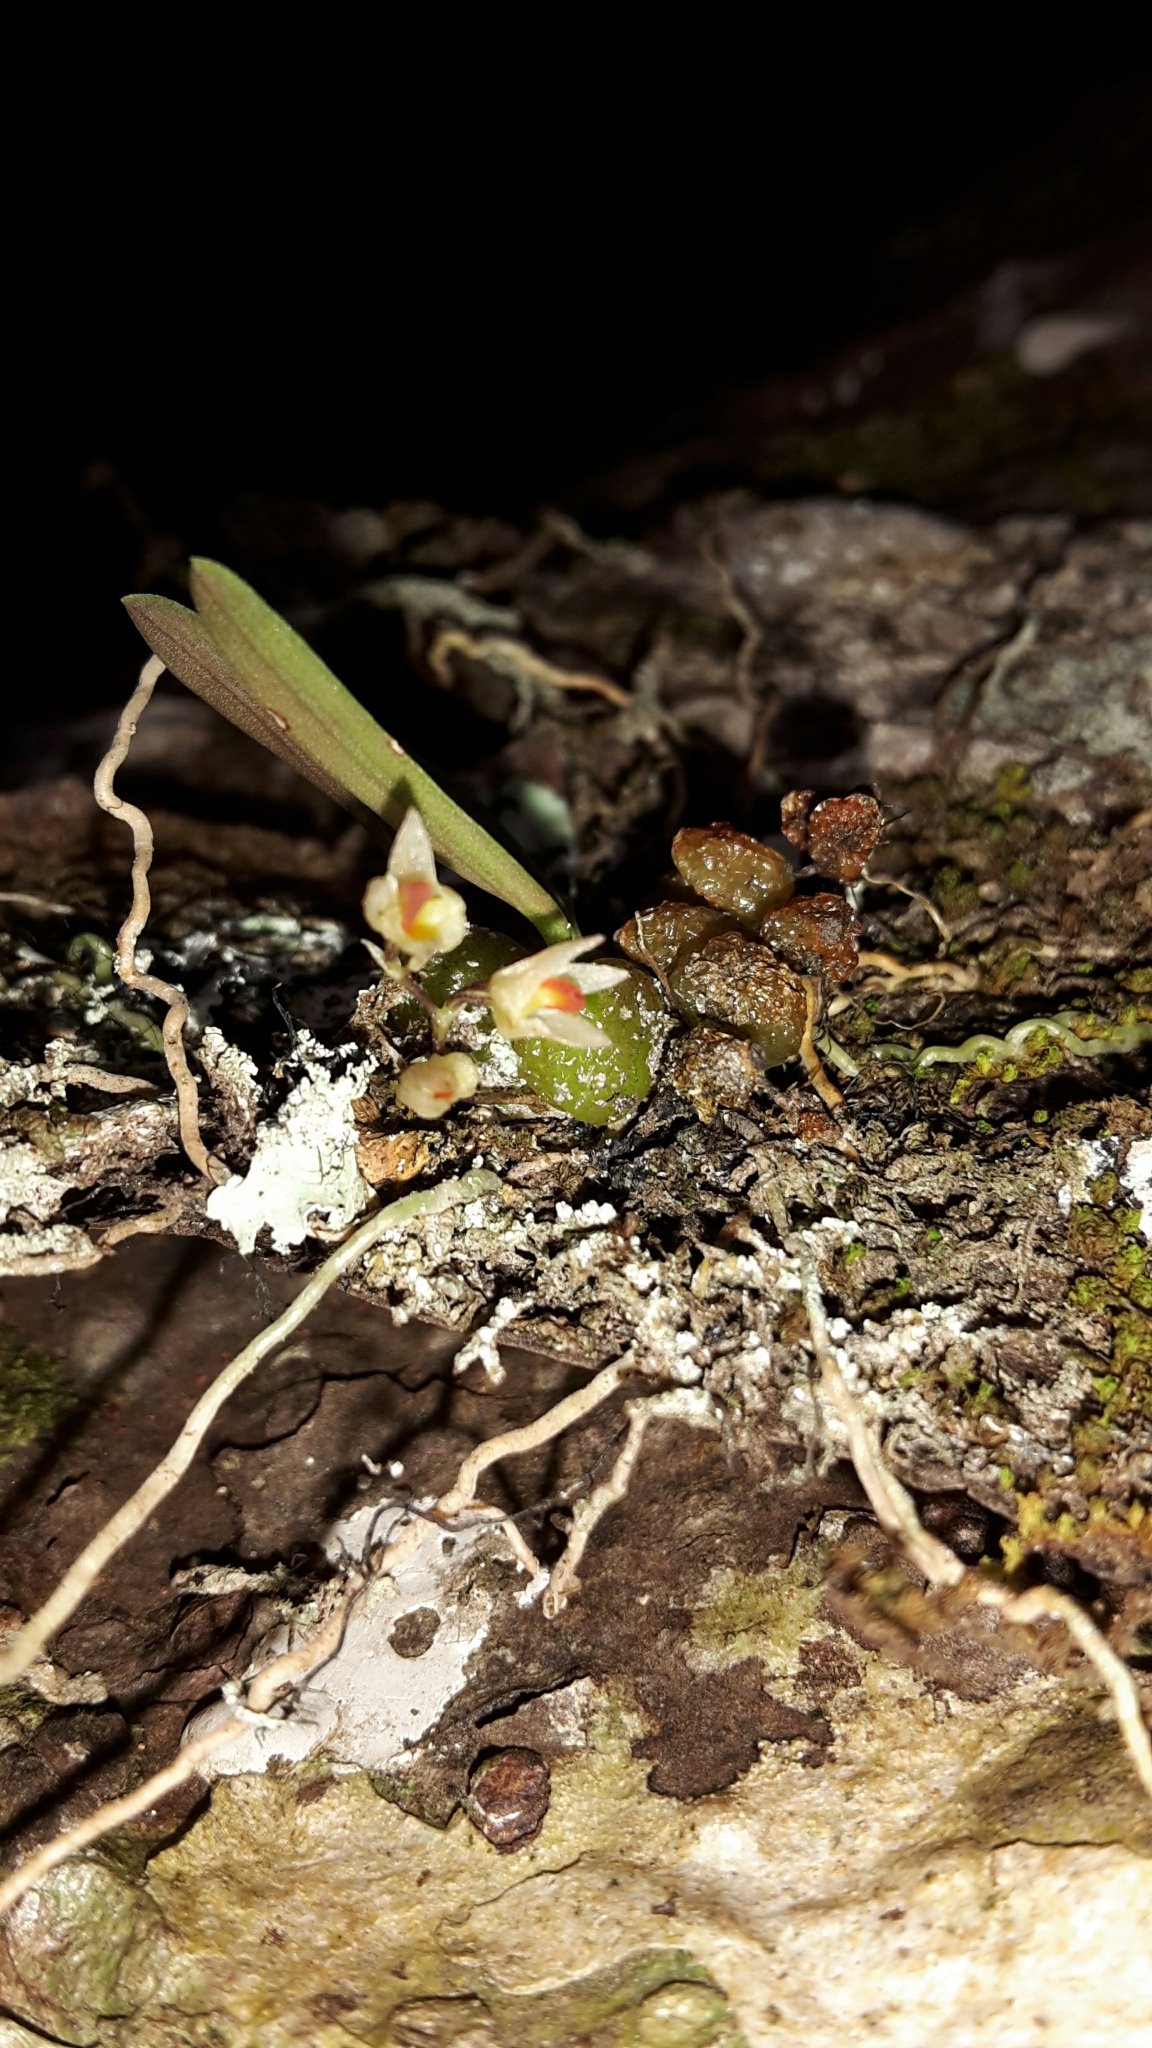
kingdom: Plantae
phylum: Tracheophyta
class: Liliopsida
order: Asparagales
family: Orchidaceae
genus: Bulbophyllum
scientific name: Bulbophyllum tuberculatum
